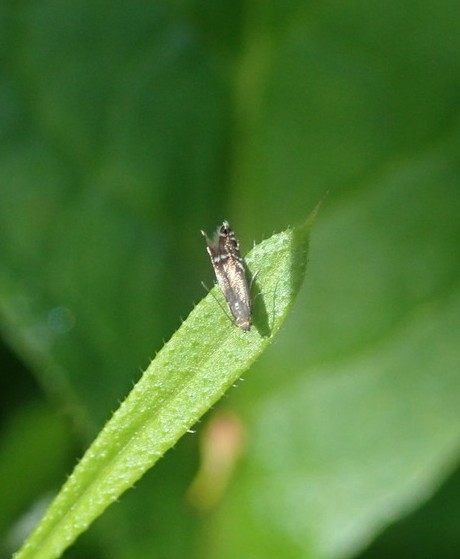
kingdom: Animalia
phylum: Arthropoda
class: Insecta
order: Lepidoptera
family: Glyphipterigidae
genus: Glyphipterix
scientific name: Glyphipterix simpliciella
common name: Cocksfoot moth
